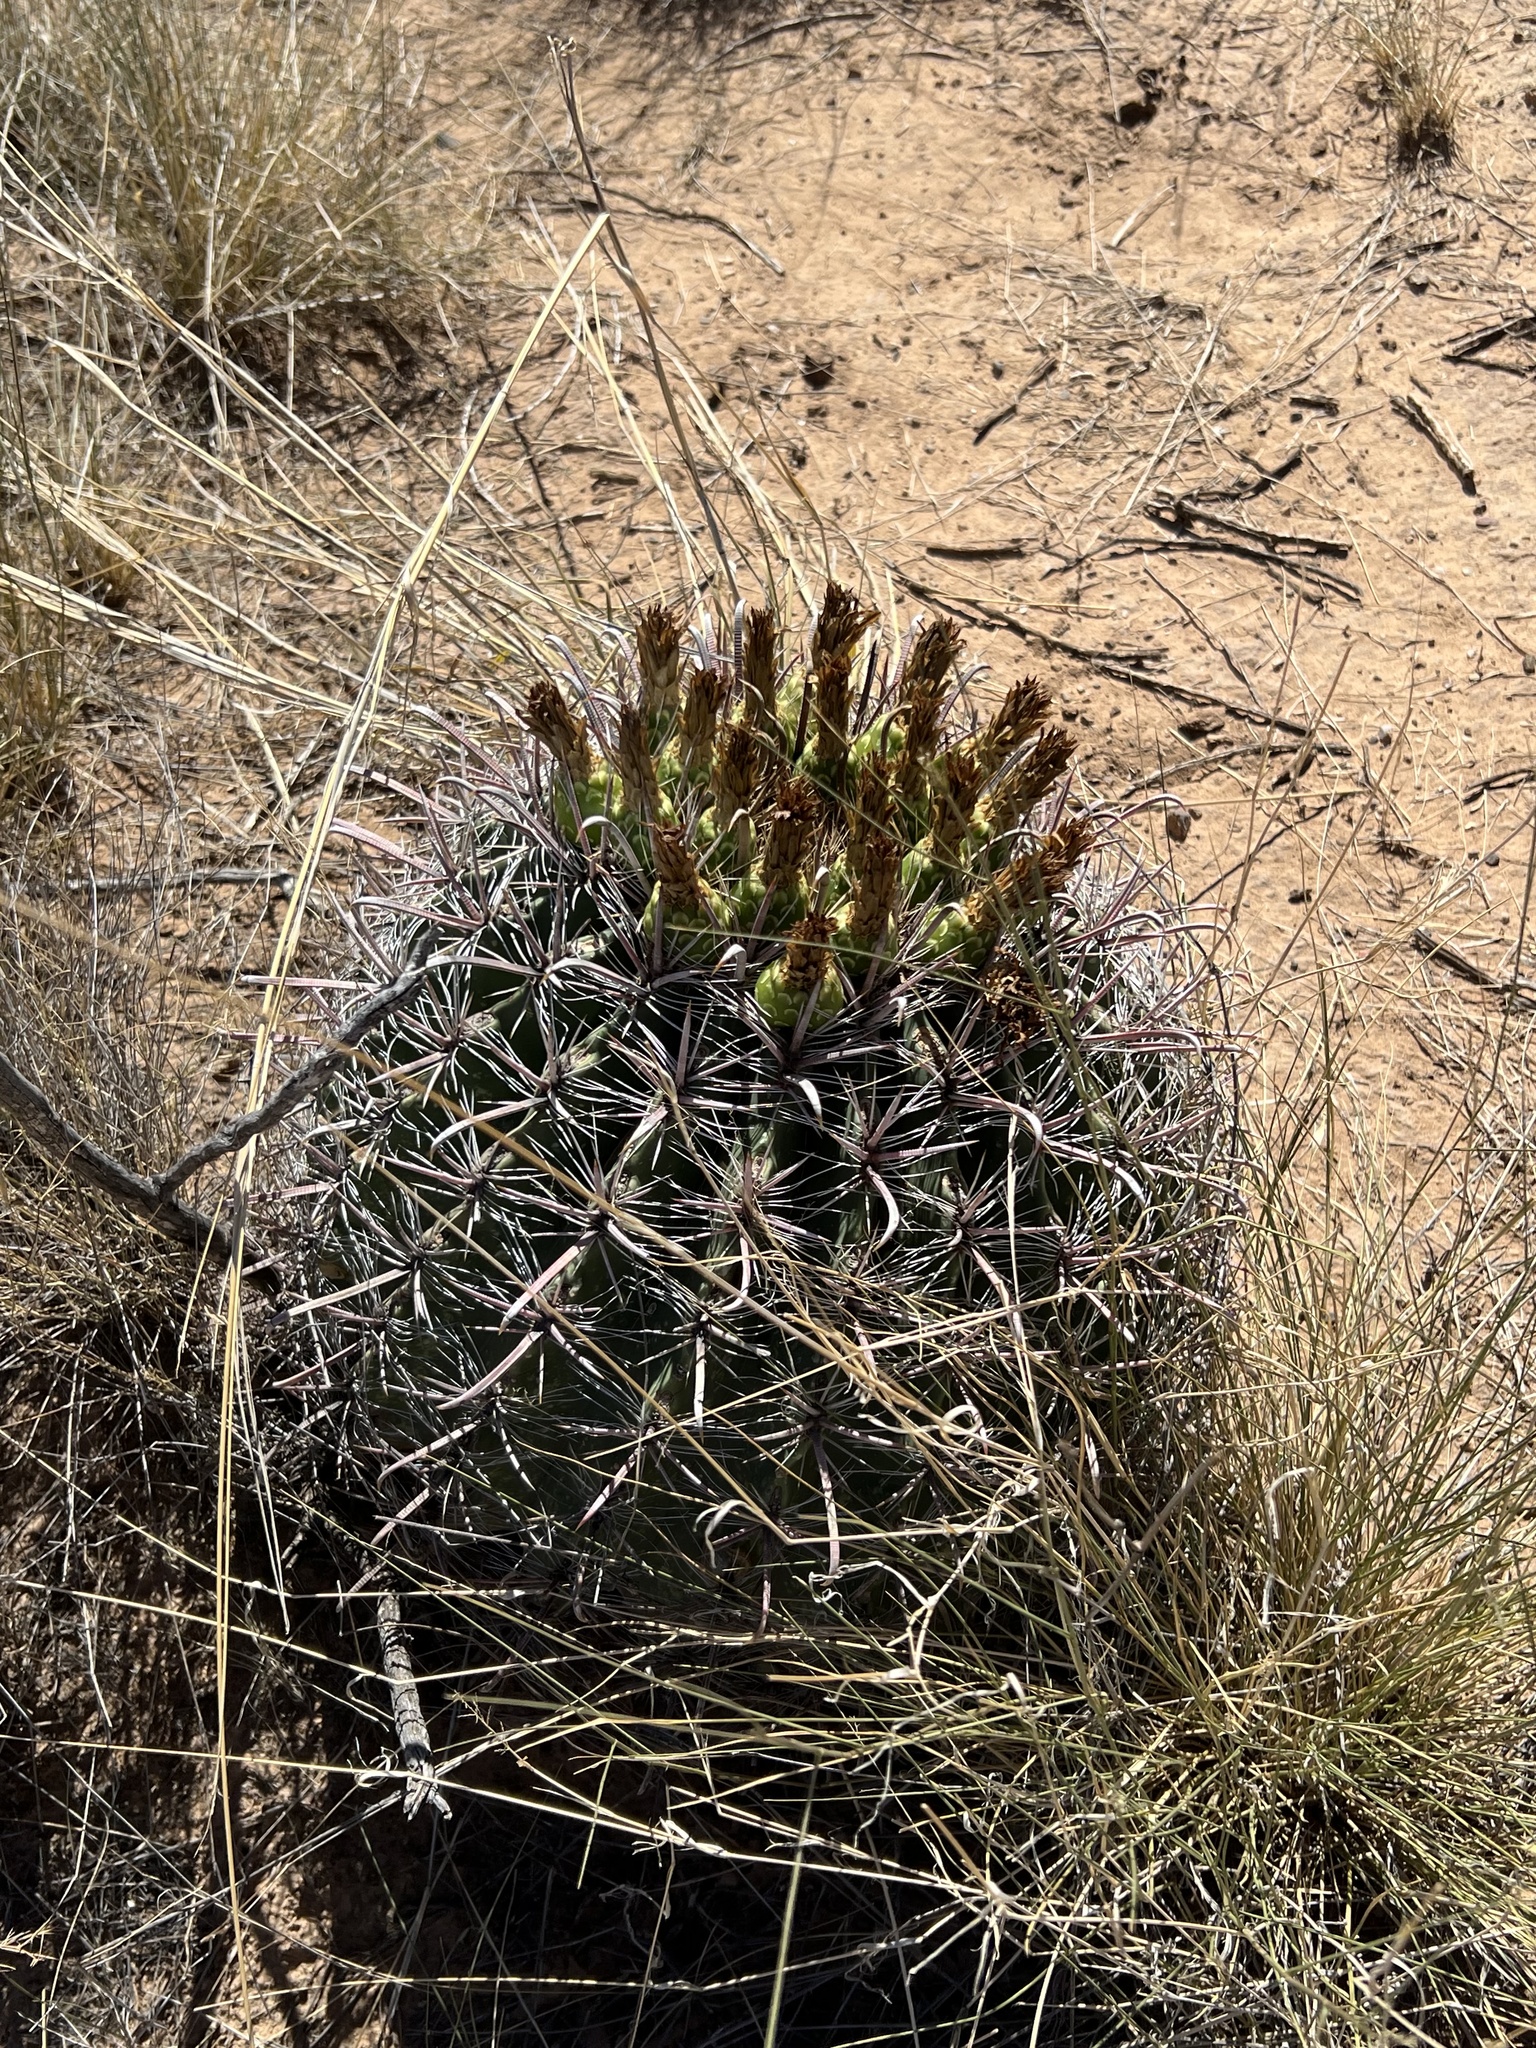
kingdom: Plantae
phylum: Tracheophyta
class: Magnoliopsida
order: Caryophyllales
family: Cactaceae
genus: Ferocactus
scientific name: Ferocactus wislizeni
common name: Candy barrel cactus
